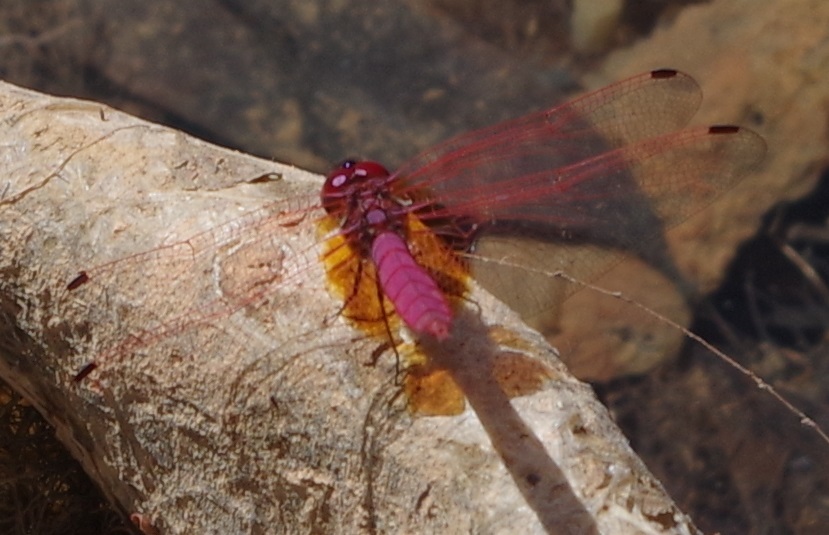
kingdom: Animalia
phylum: Arthropoda
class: Insecta
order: Odonata
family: Libellulidae
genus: Trithemis
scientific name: Trithemis aurora
